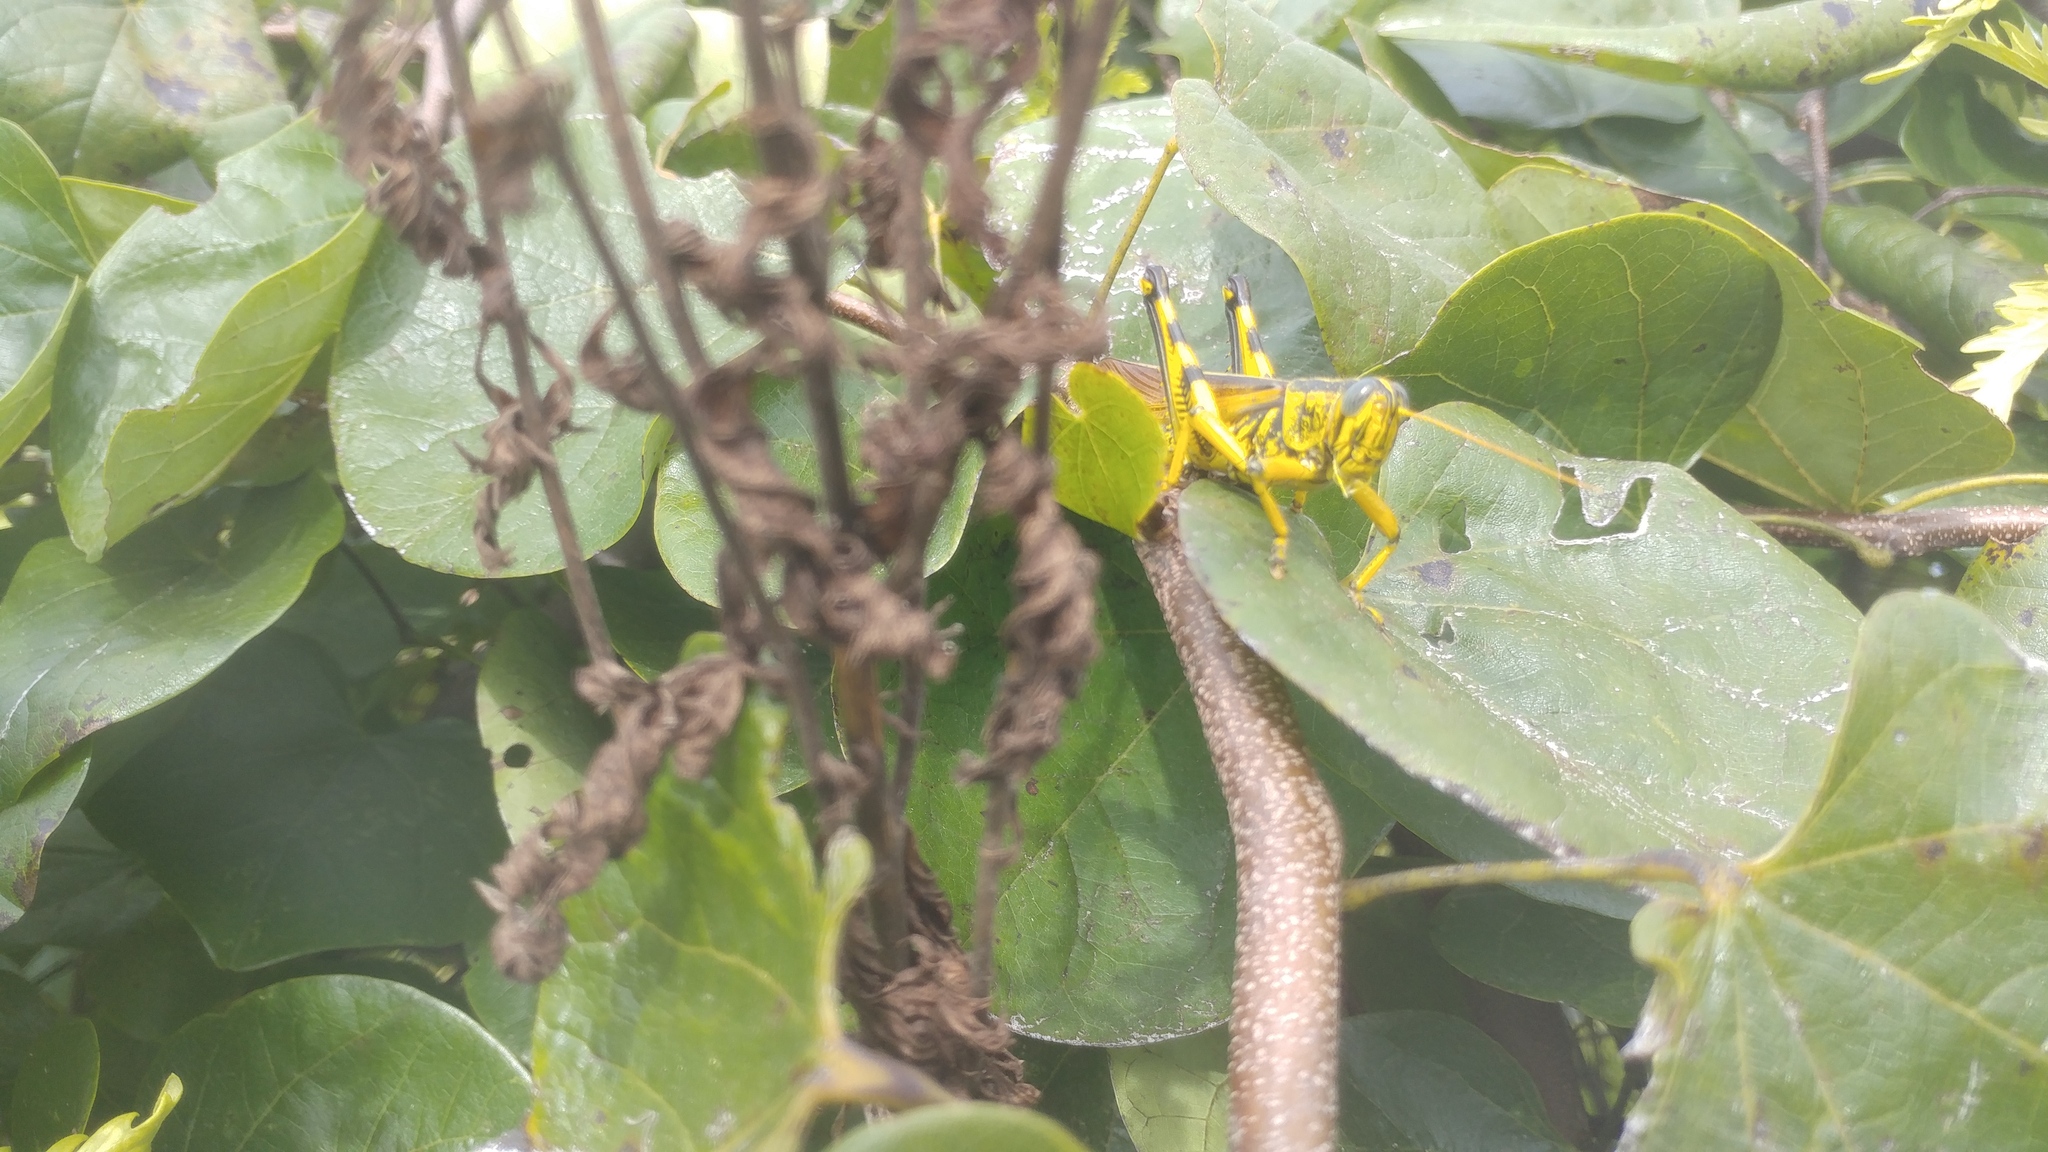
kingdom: Animalia
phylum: Arthropoda
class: Insecta
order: Orthoptera
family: Acrididae
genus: Schistocerca
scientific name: Schistocerca lineata
